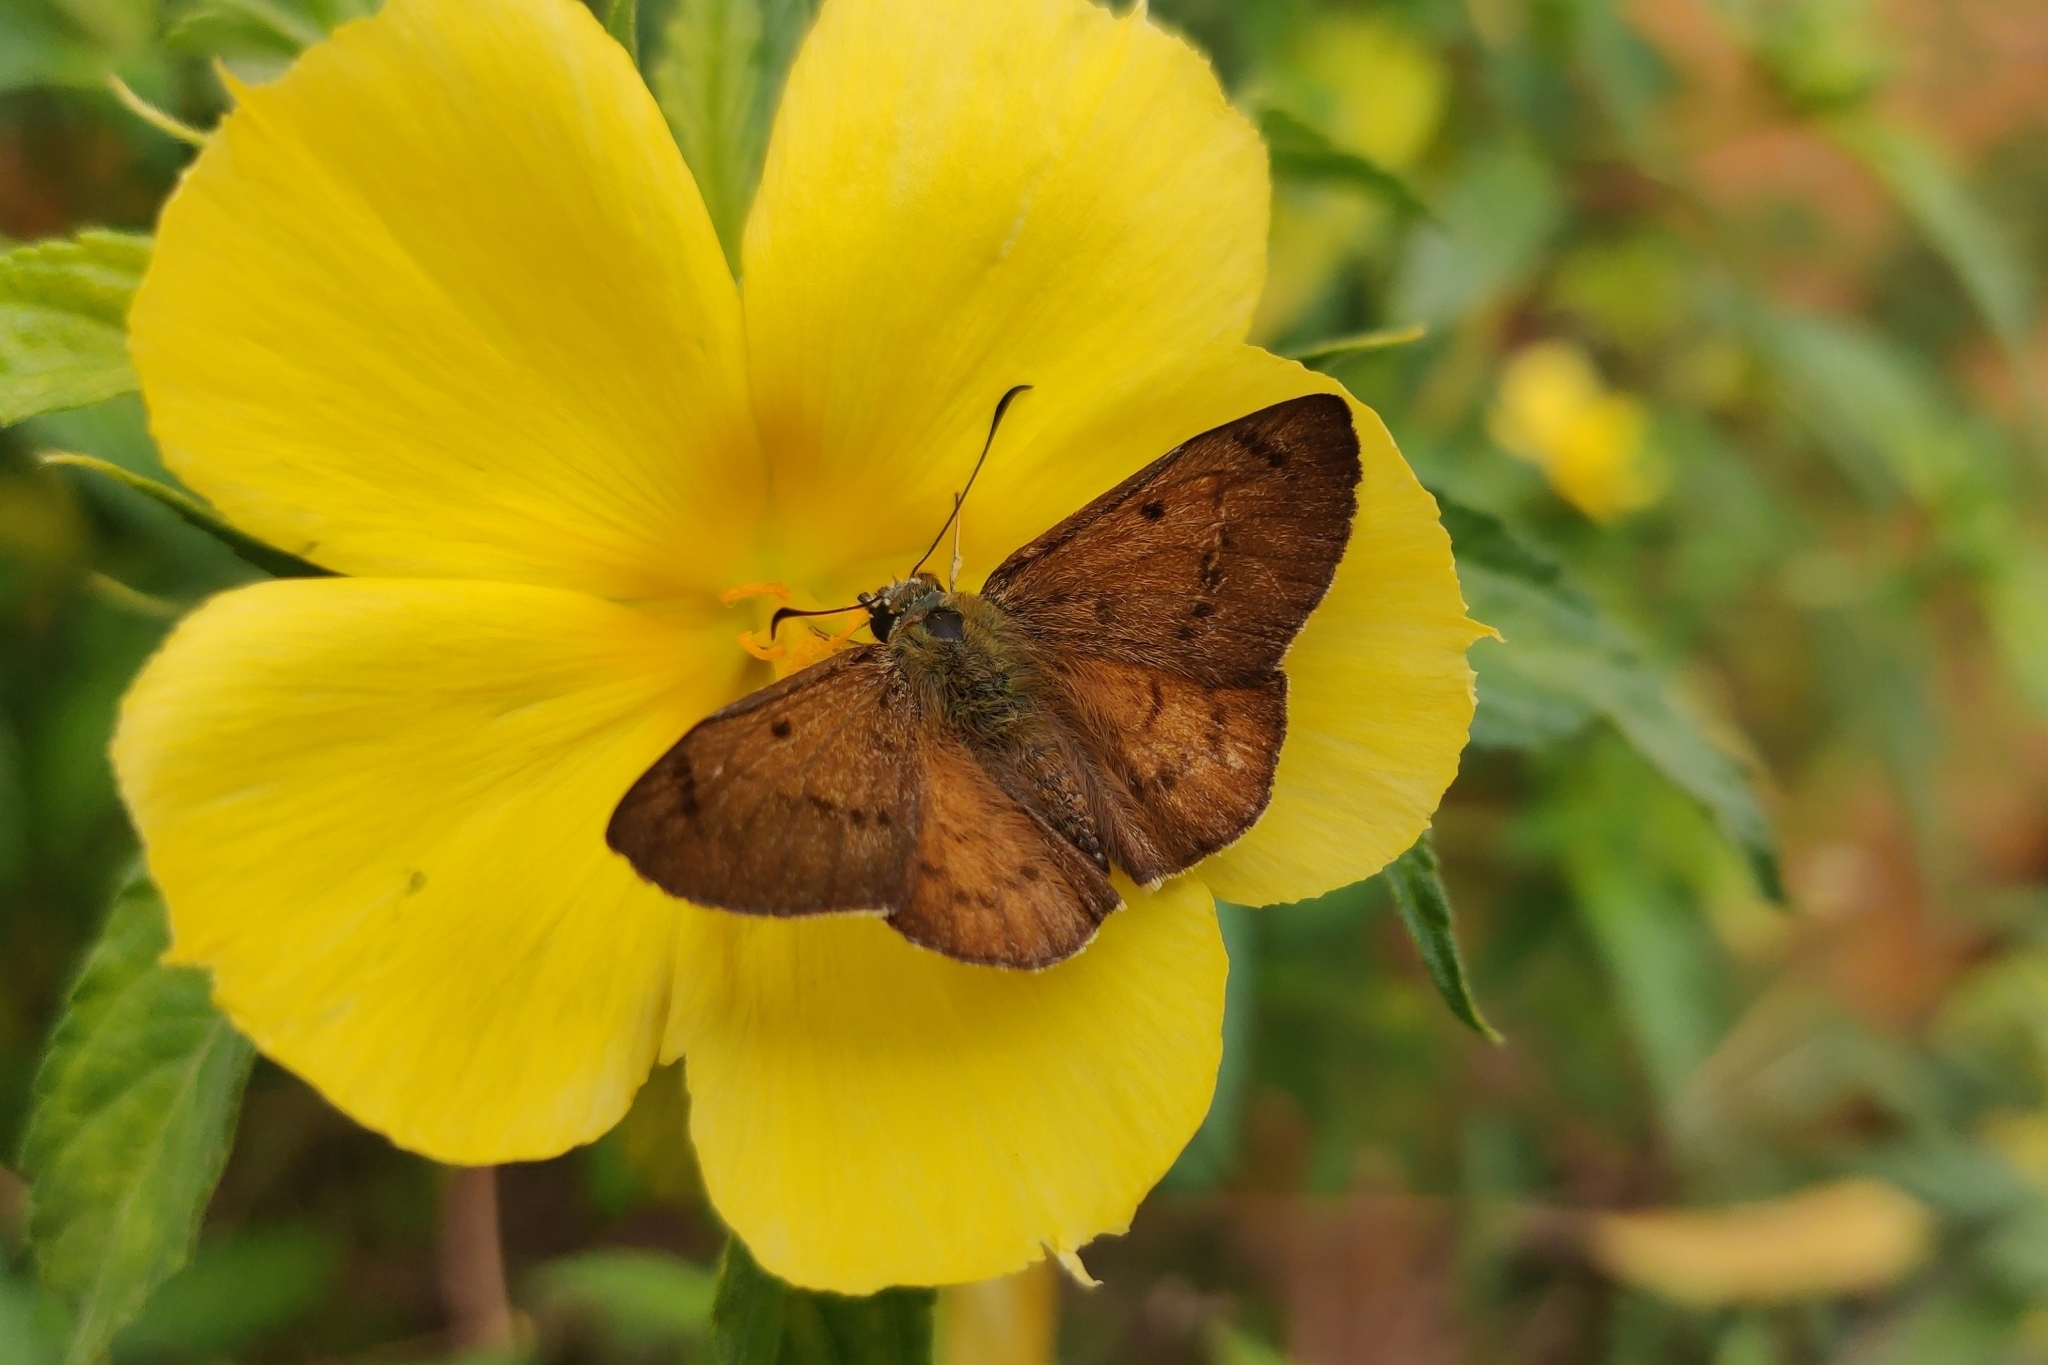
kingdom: Animalia
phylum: Arthropoda
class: Insecta
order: Lepidoptera
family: Hesperiidae
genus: Eagris
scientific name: Eagris sabadius
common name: Orange flat
